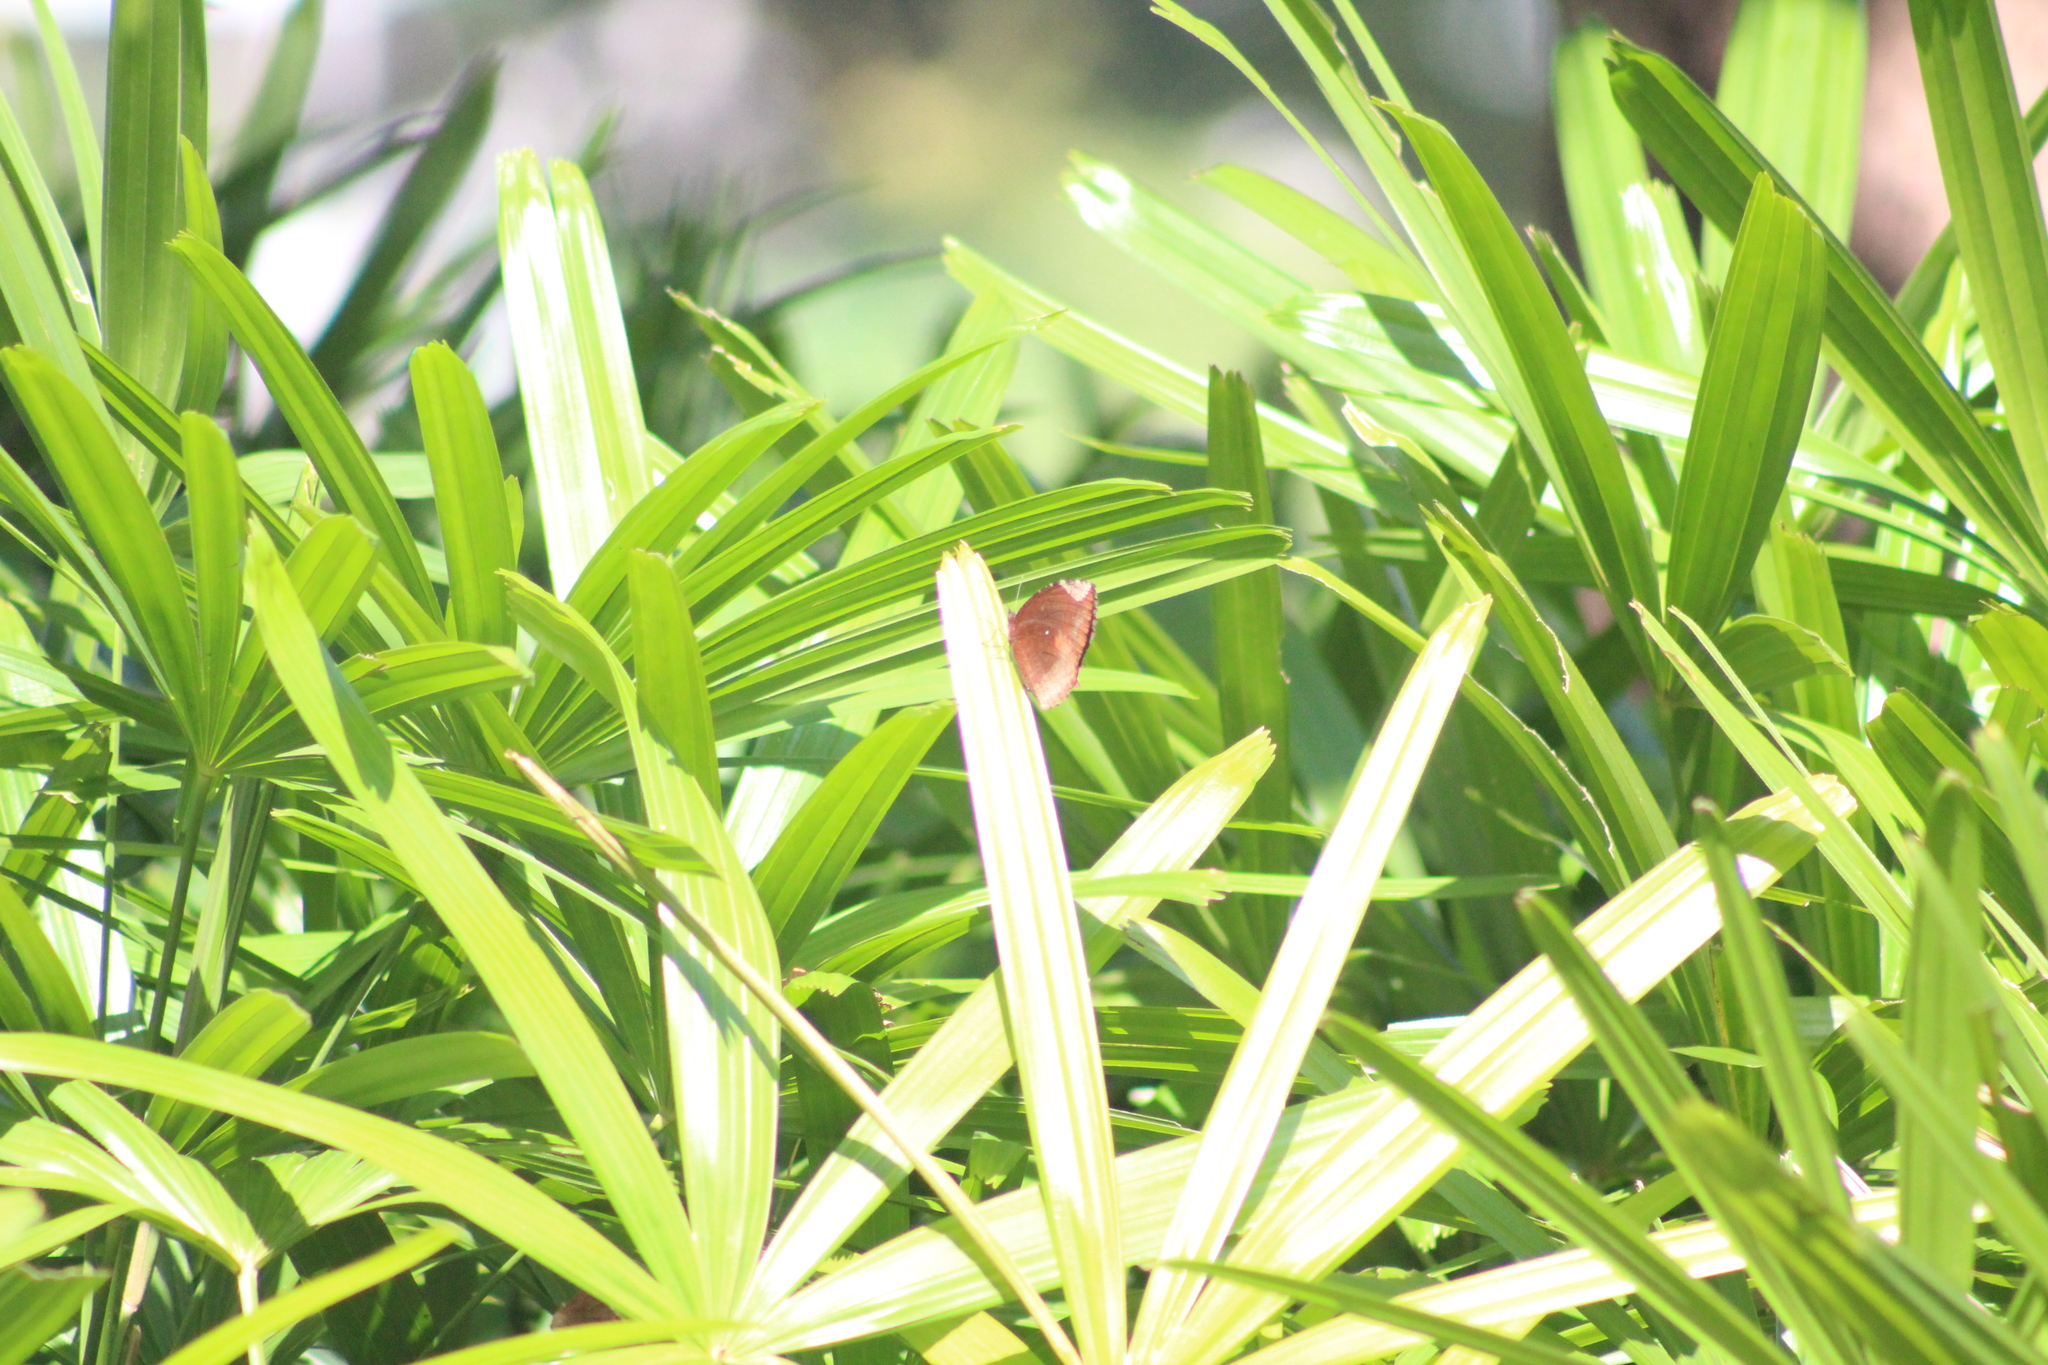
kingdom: Animalia
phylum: Arthropoda
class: Insecta
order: Lepidoptera
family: Nymphalidae
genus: Elymnias
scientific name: Elymnias hypermnestra
